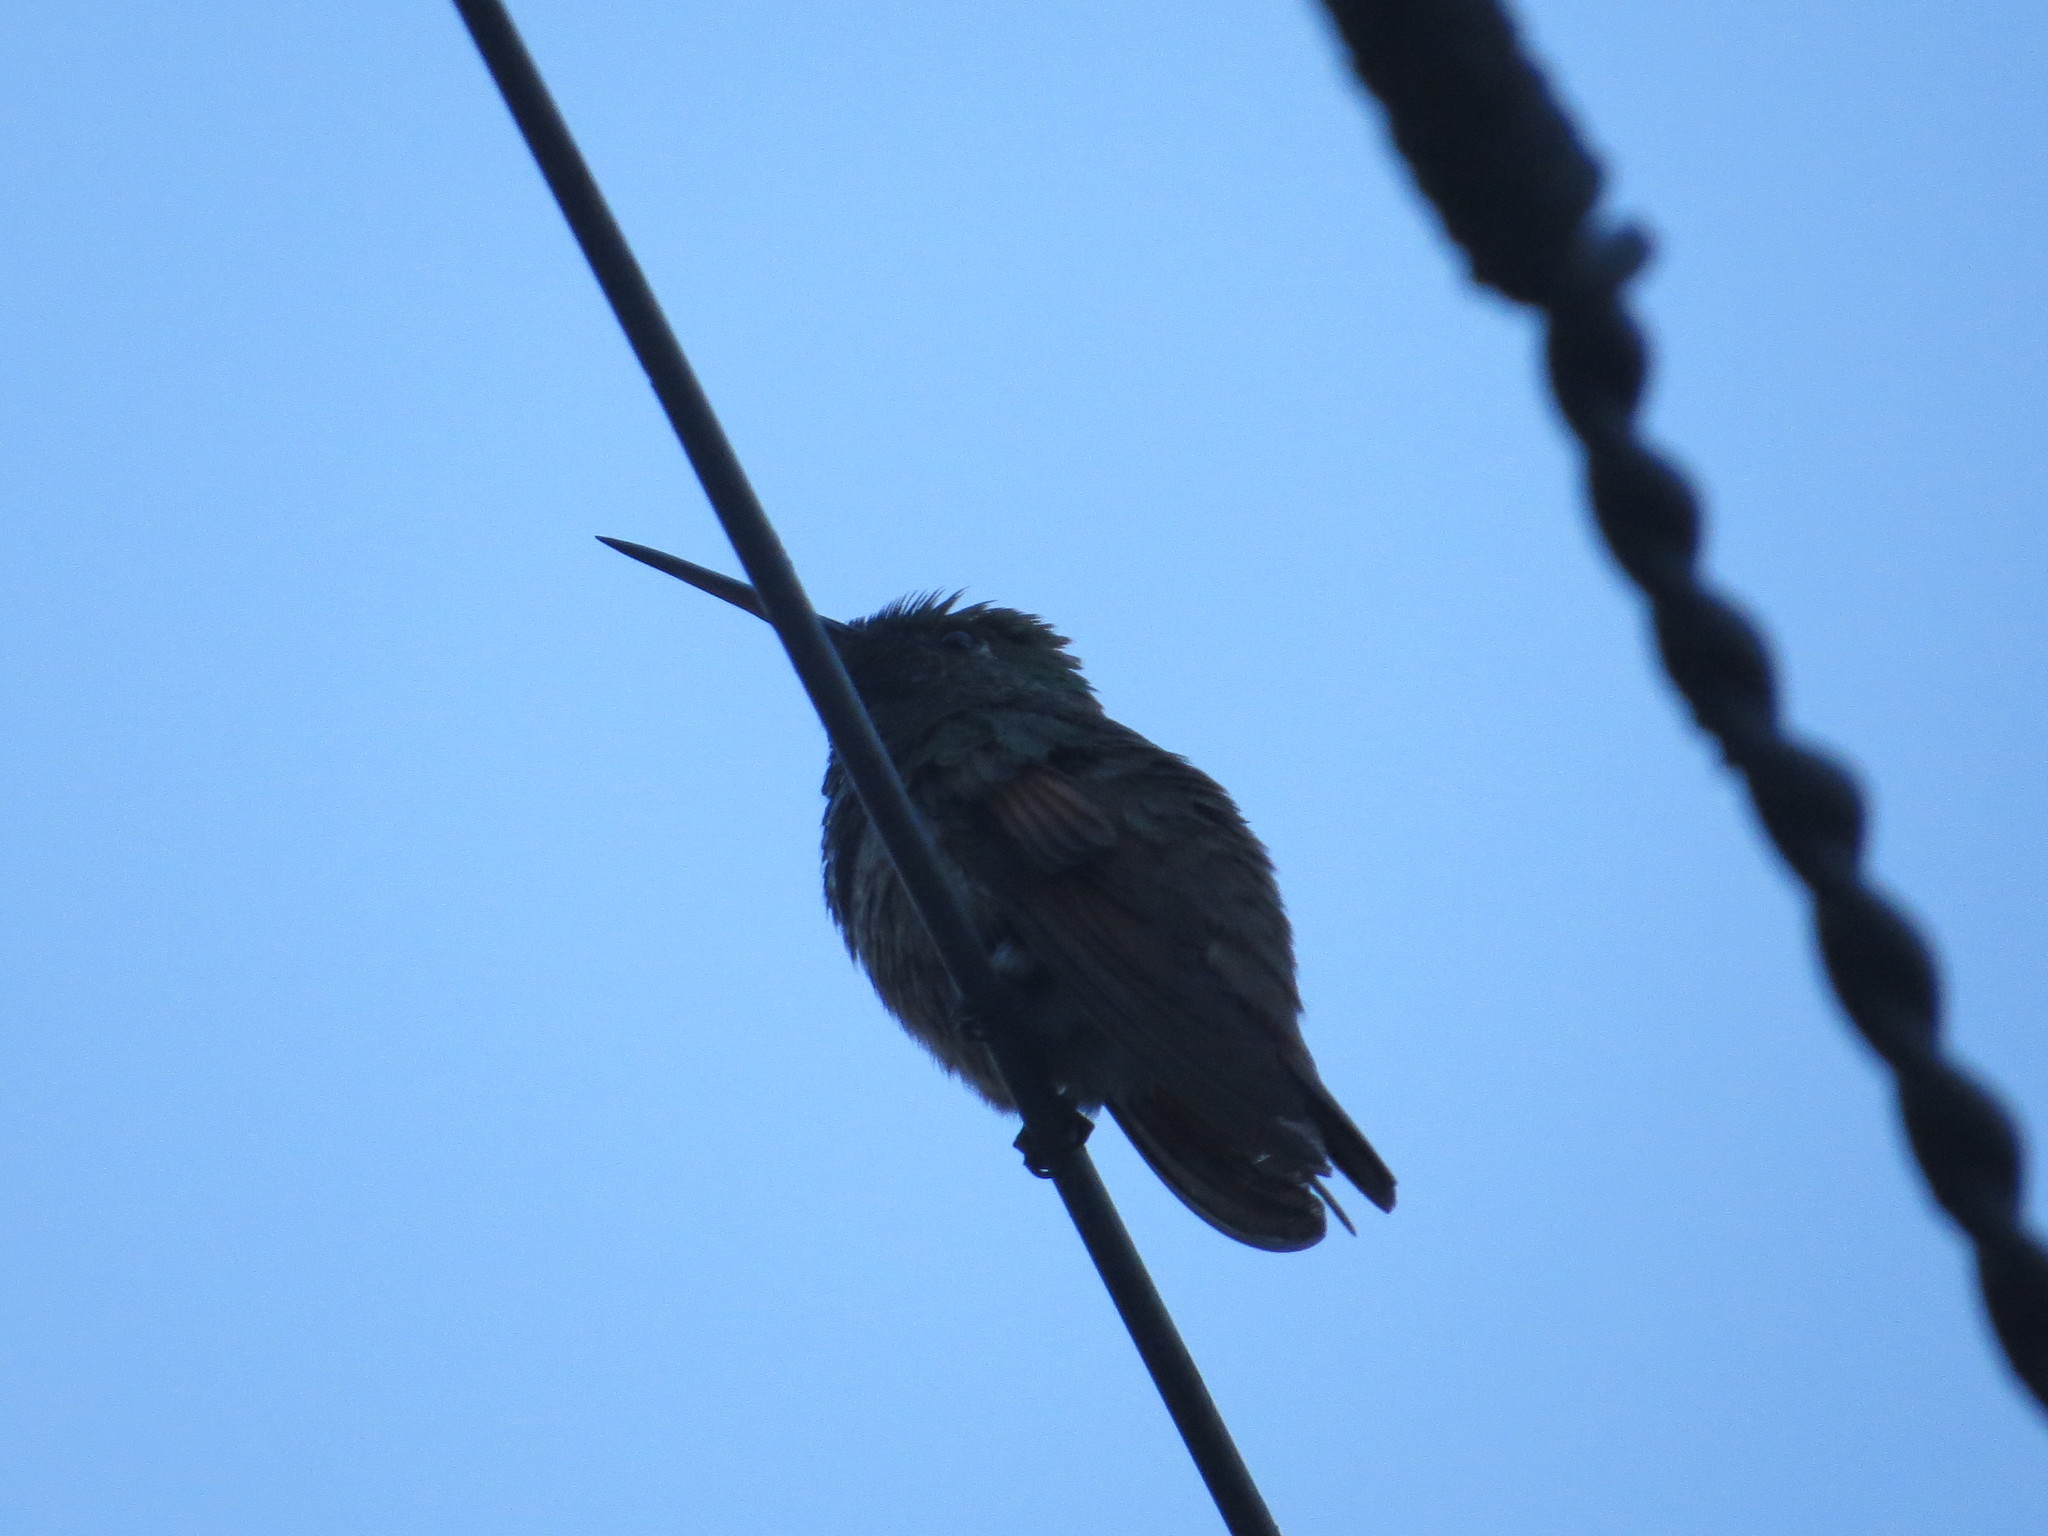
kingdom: Animalia
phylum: Chordata
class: Aves
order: Apodiformes
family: Trochilidae
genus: Saucerottia
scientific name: Saucerottia beryllina
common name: Berylline hummingbird
